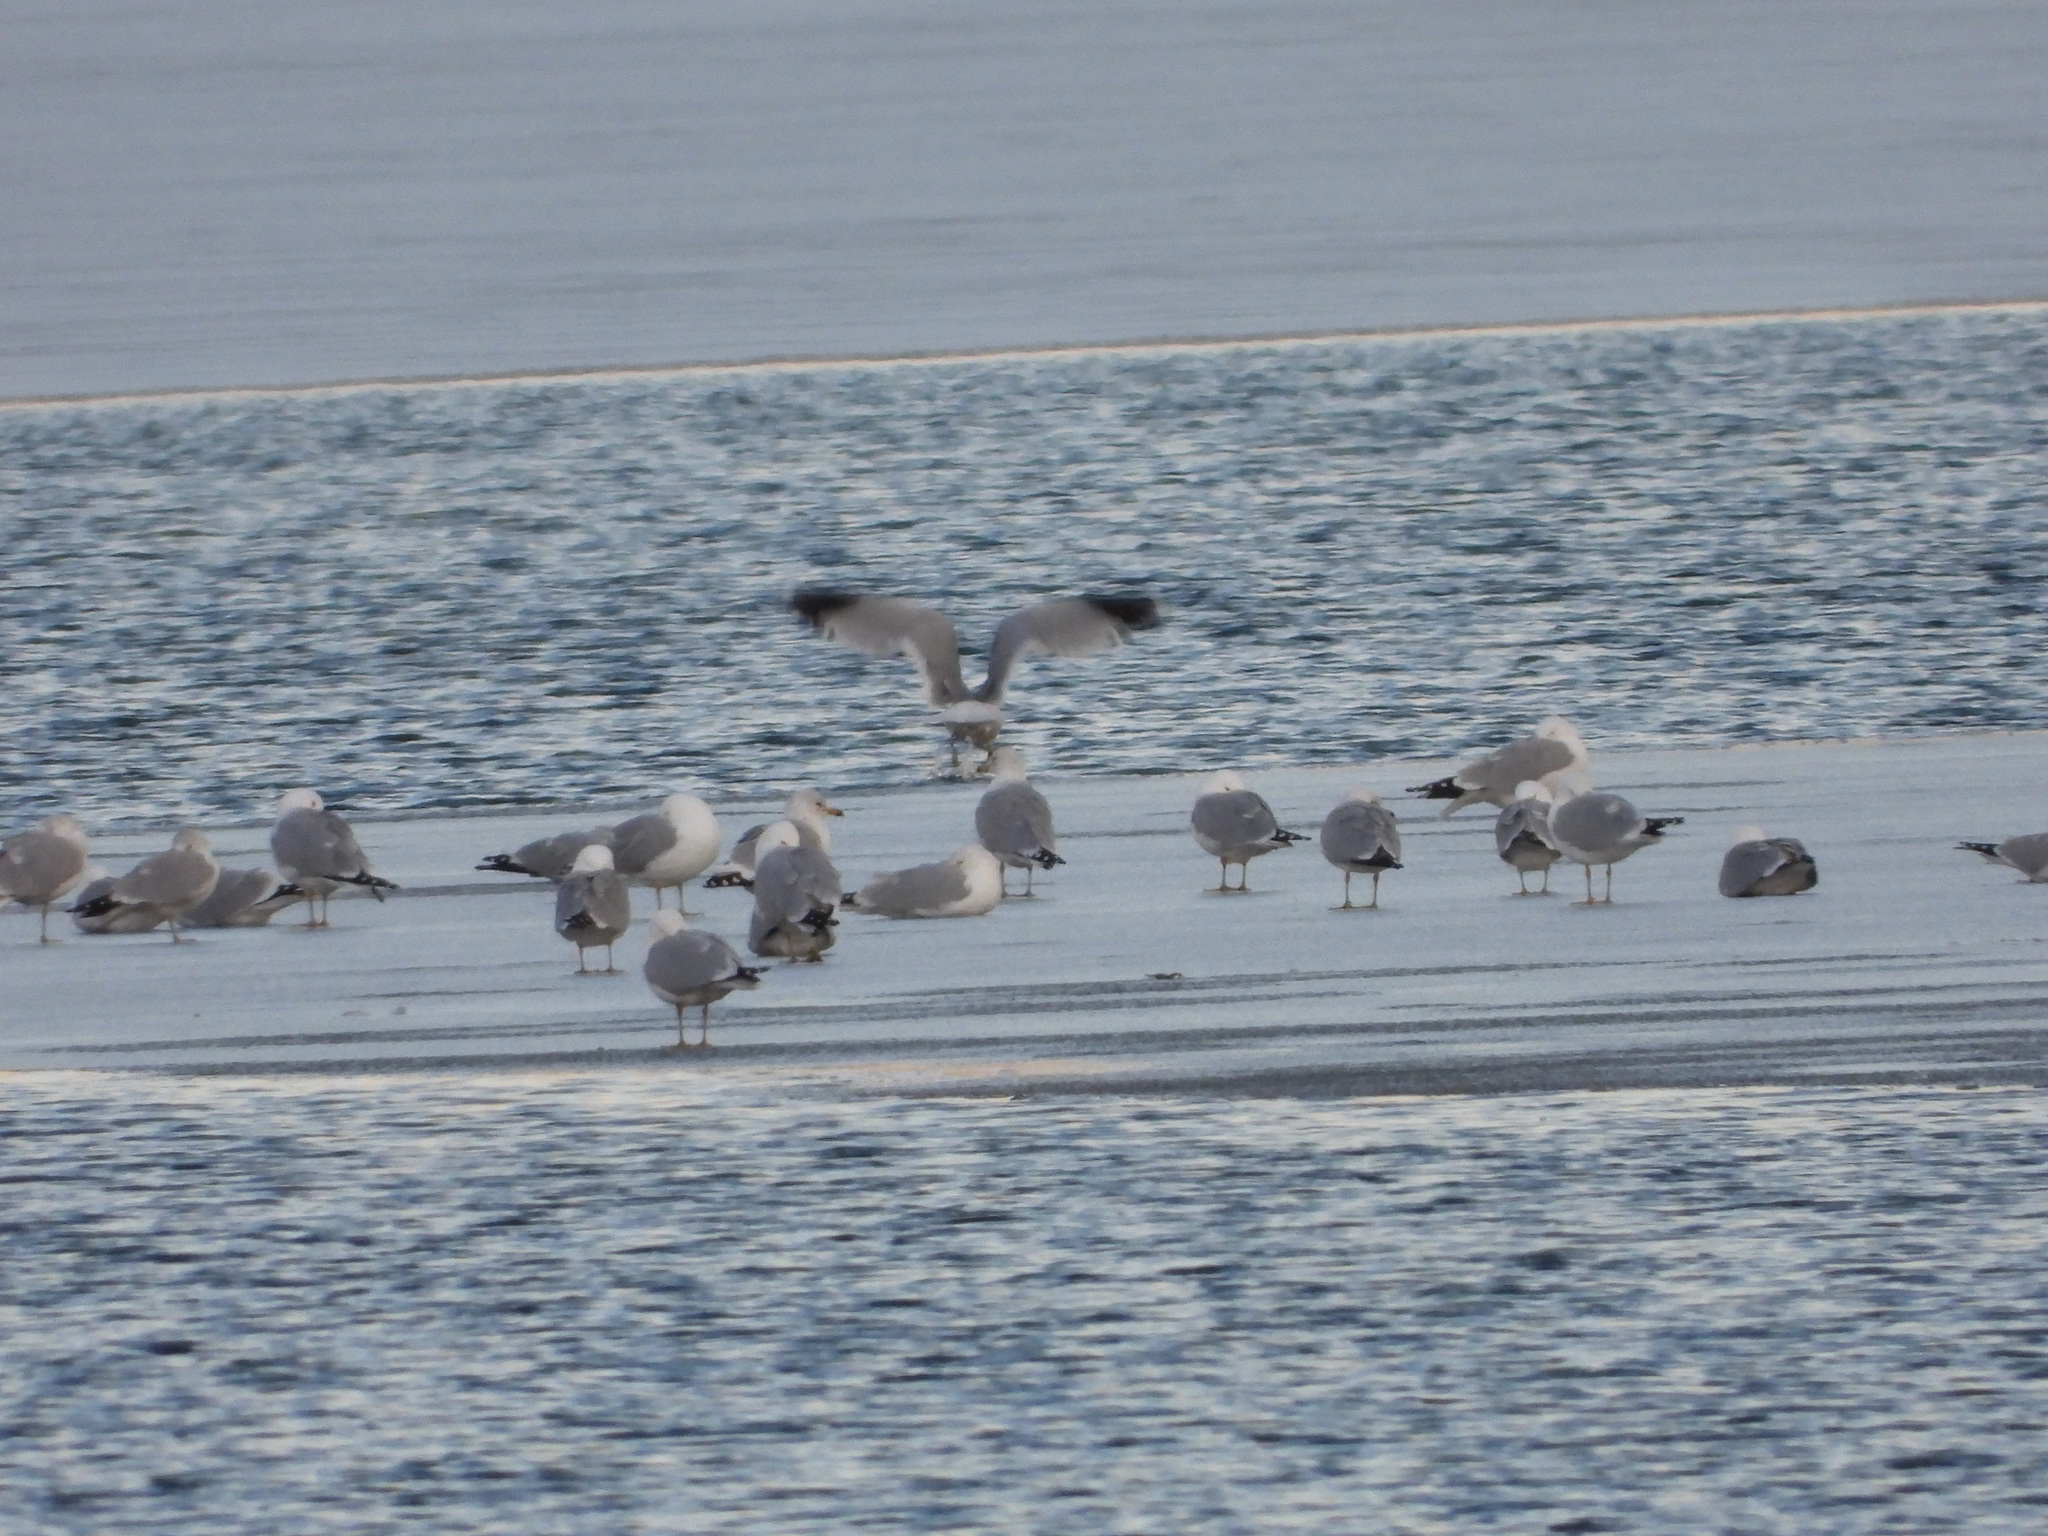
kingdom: Animalia
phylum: Chordata
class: Aves
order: Charadriiformes
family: Laridae
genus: Larus
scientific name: Larus delawarensis
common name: Ring-billed gull
